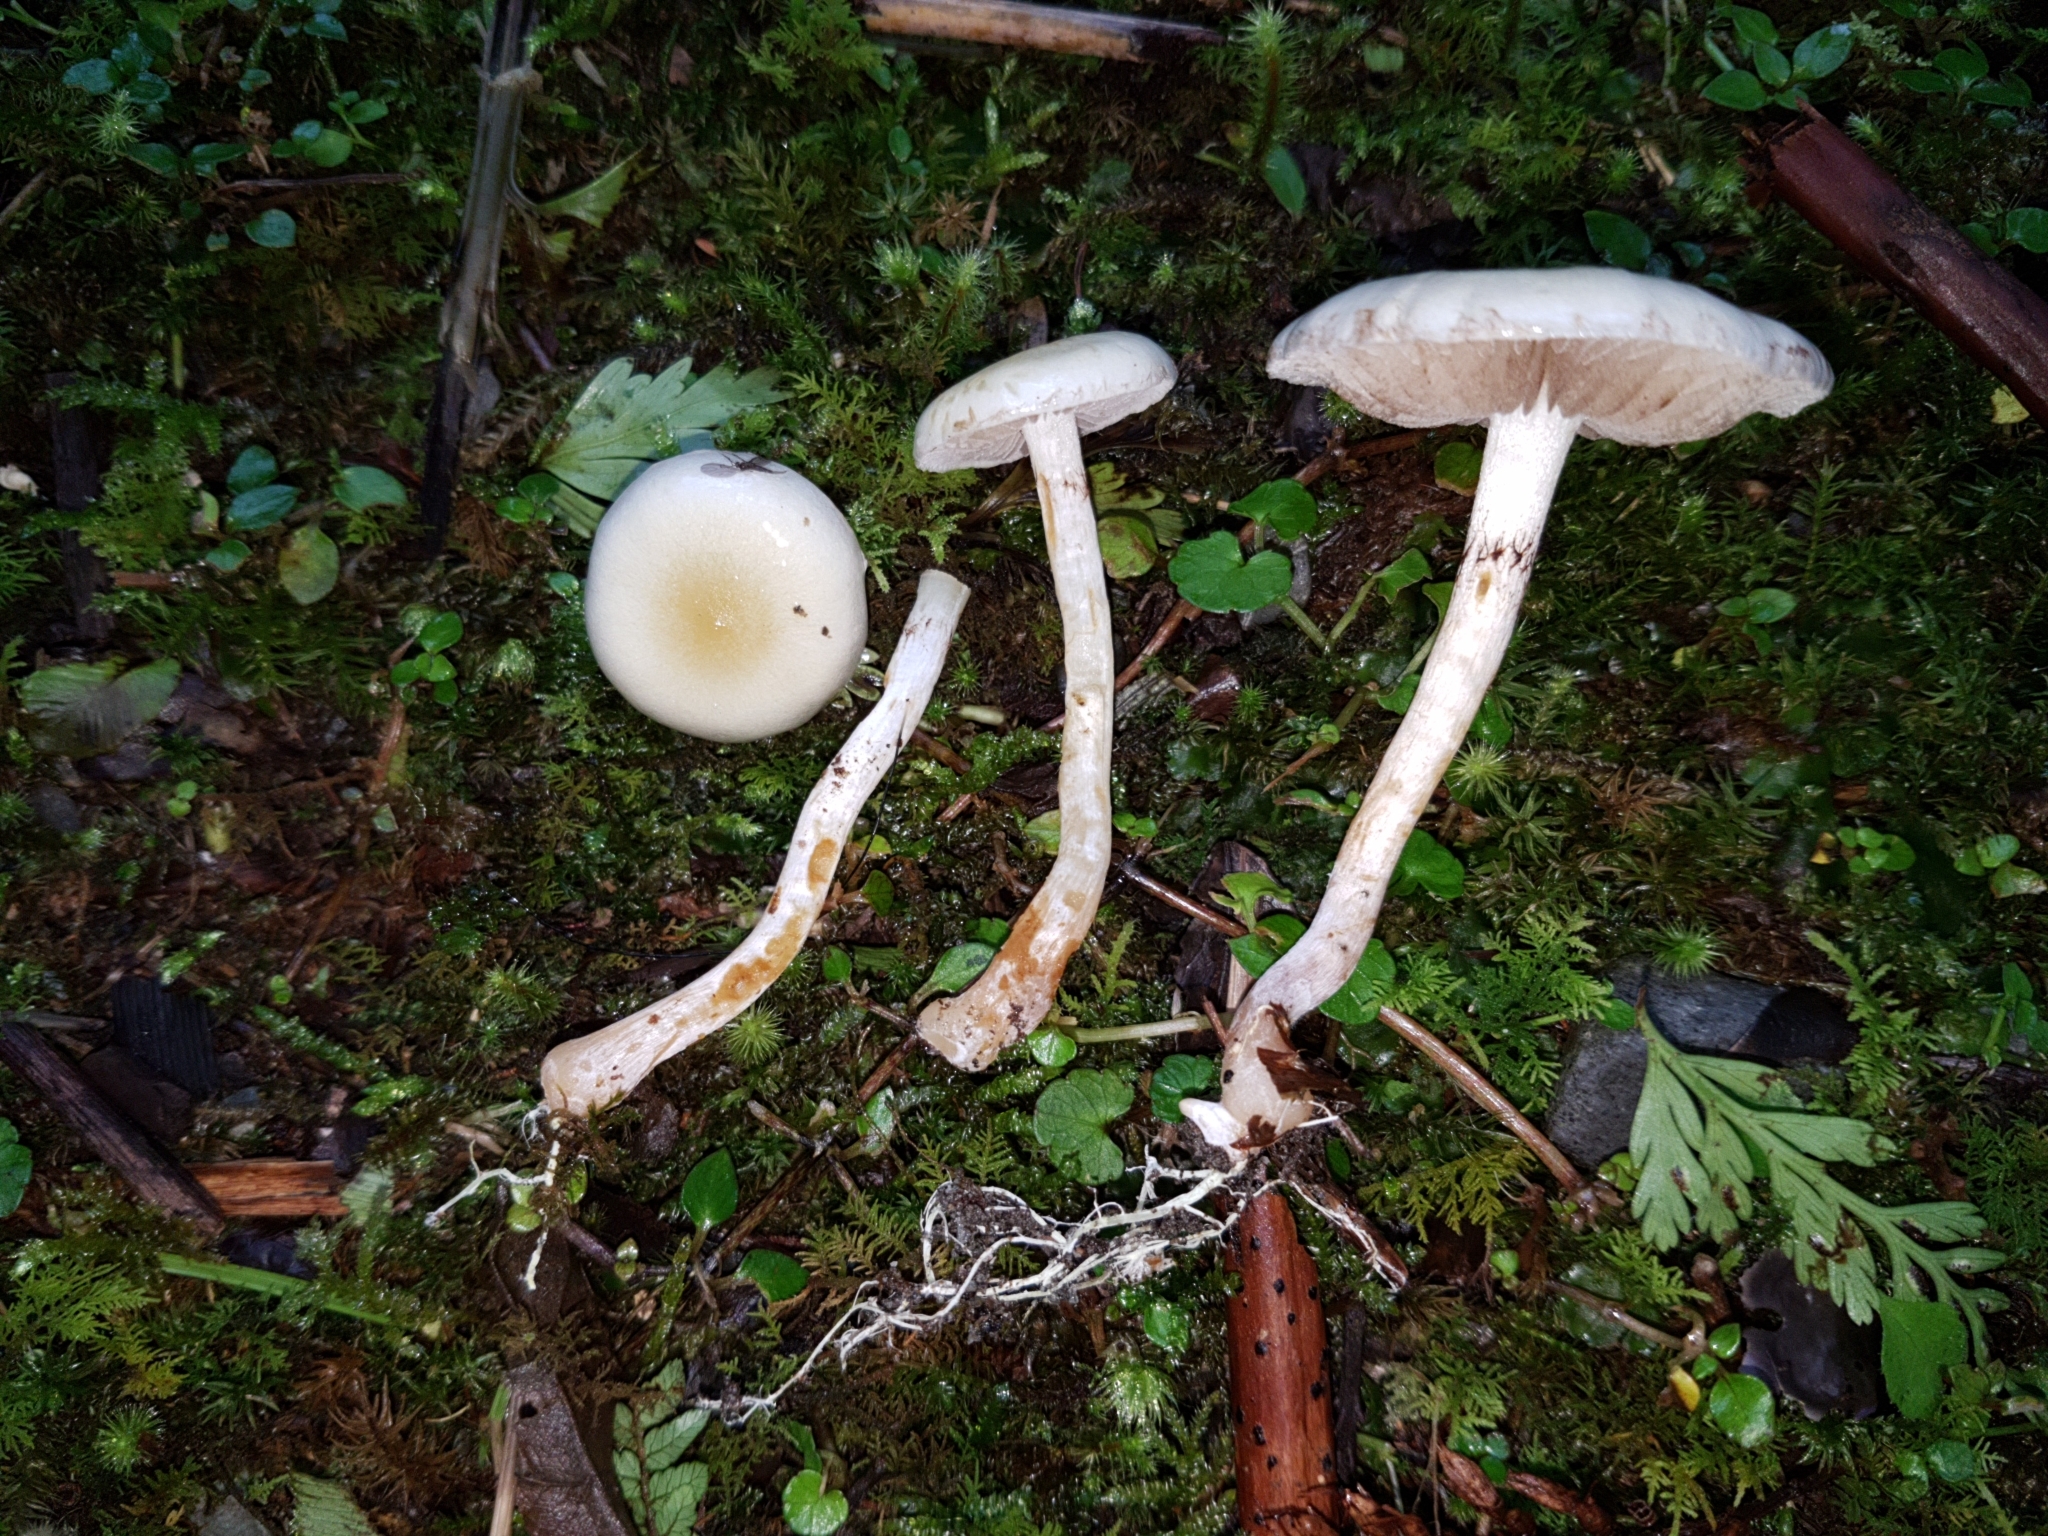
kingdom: Fungi
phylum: Basidiomycota
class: Agaricomycetes
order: Agaricales
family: Strophariaceae
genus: Pholiota
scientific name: Pholiota
